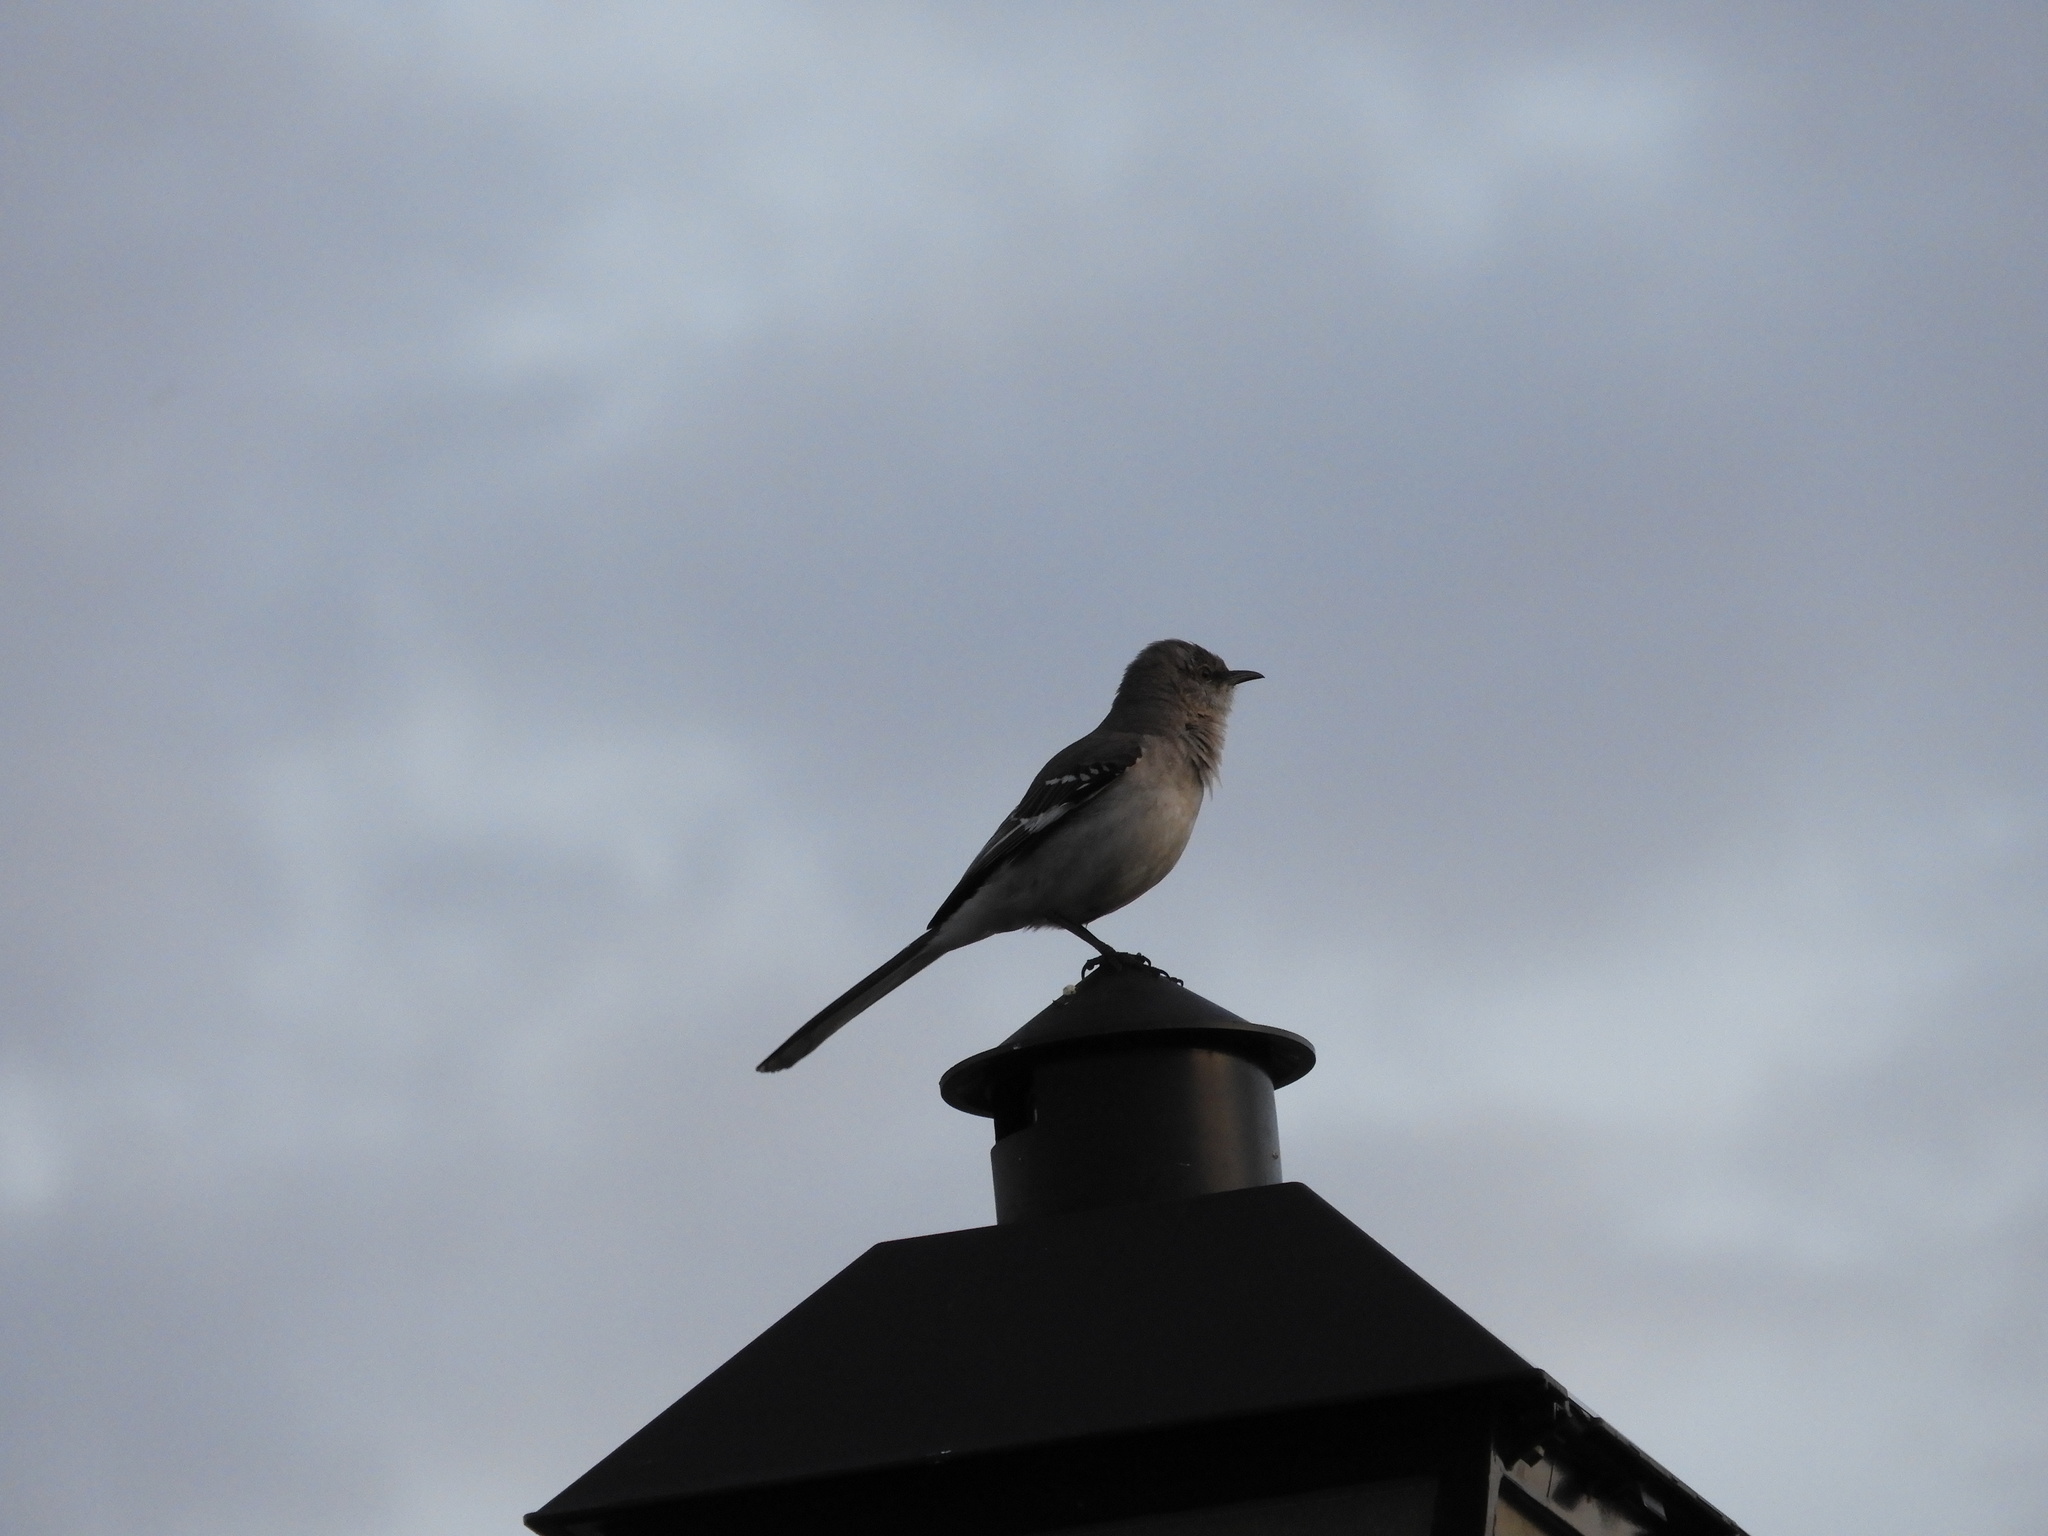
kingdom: Animalia
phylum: Chordata
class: Aves
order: Passeriformes
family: Mimidae
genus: Mimus
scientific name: Mimus polyglottos
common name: Northern mockingbird
